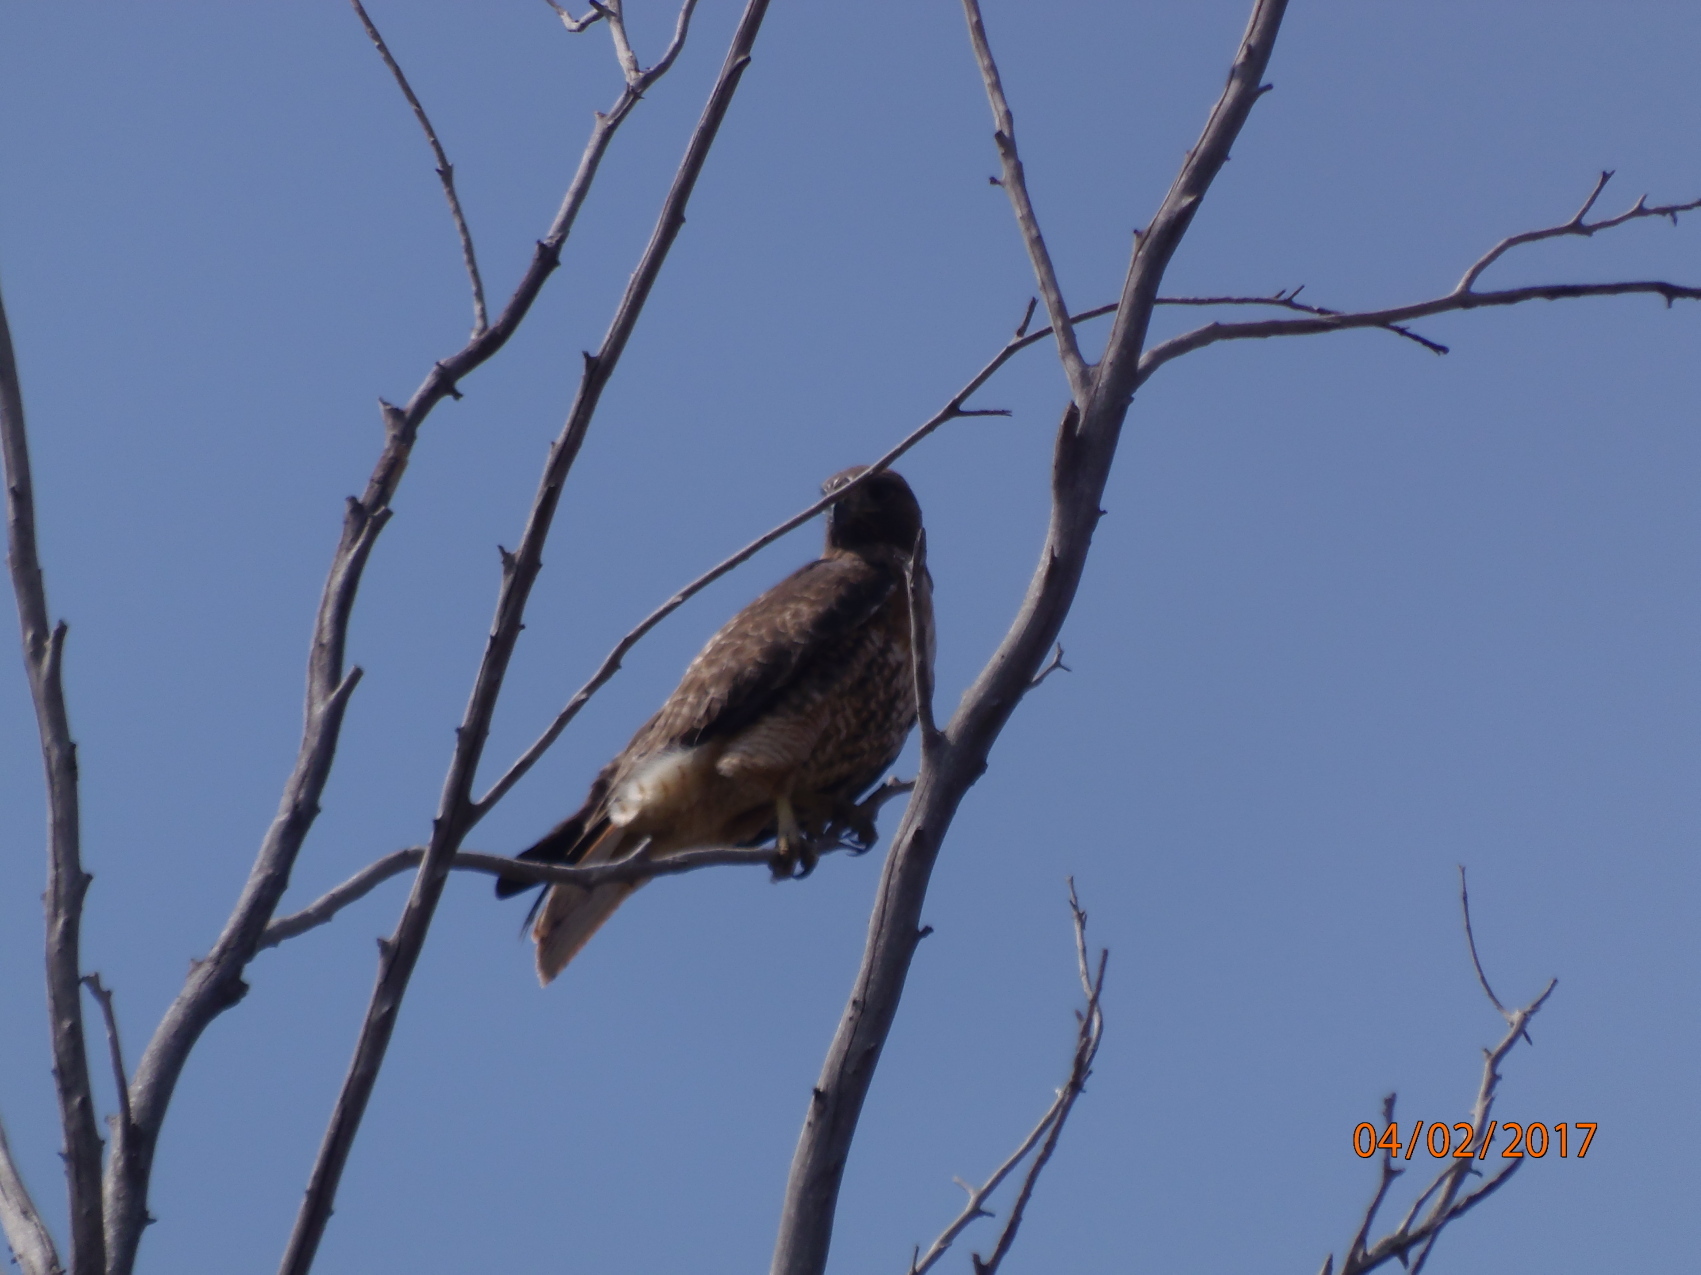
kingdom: Animalia
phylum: Chordata
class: Aves
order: Accipitriformes
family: Accipitridae
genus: Buteo
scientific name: Buteo jamaicensis
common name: Red-tailed hawk
